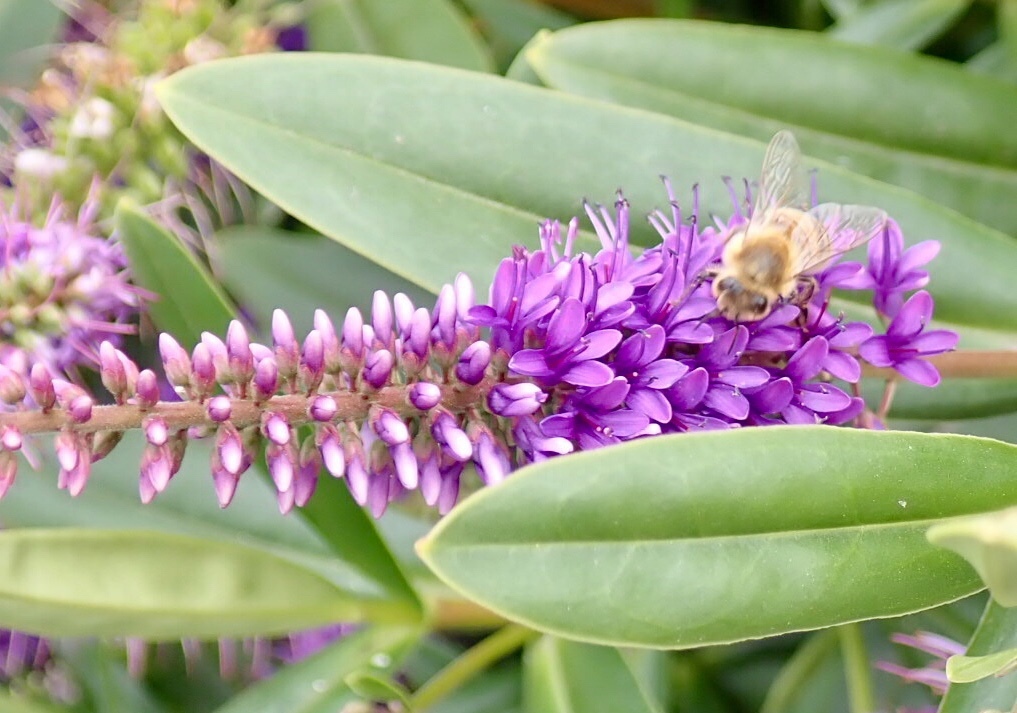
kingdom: Animalia
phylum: Arthropoda
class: Insecta
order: Hymenoptera
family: Apidae
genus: Apis
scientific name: Apis mellifera
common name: Honey bee
